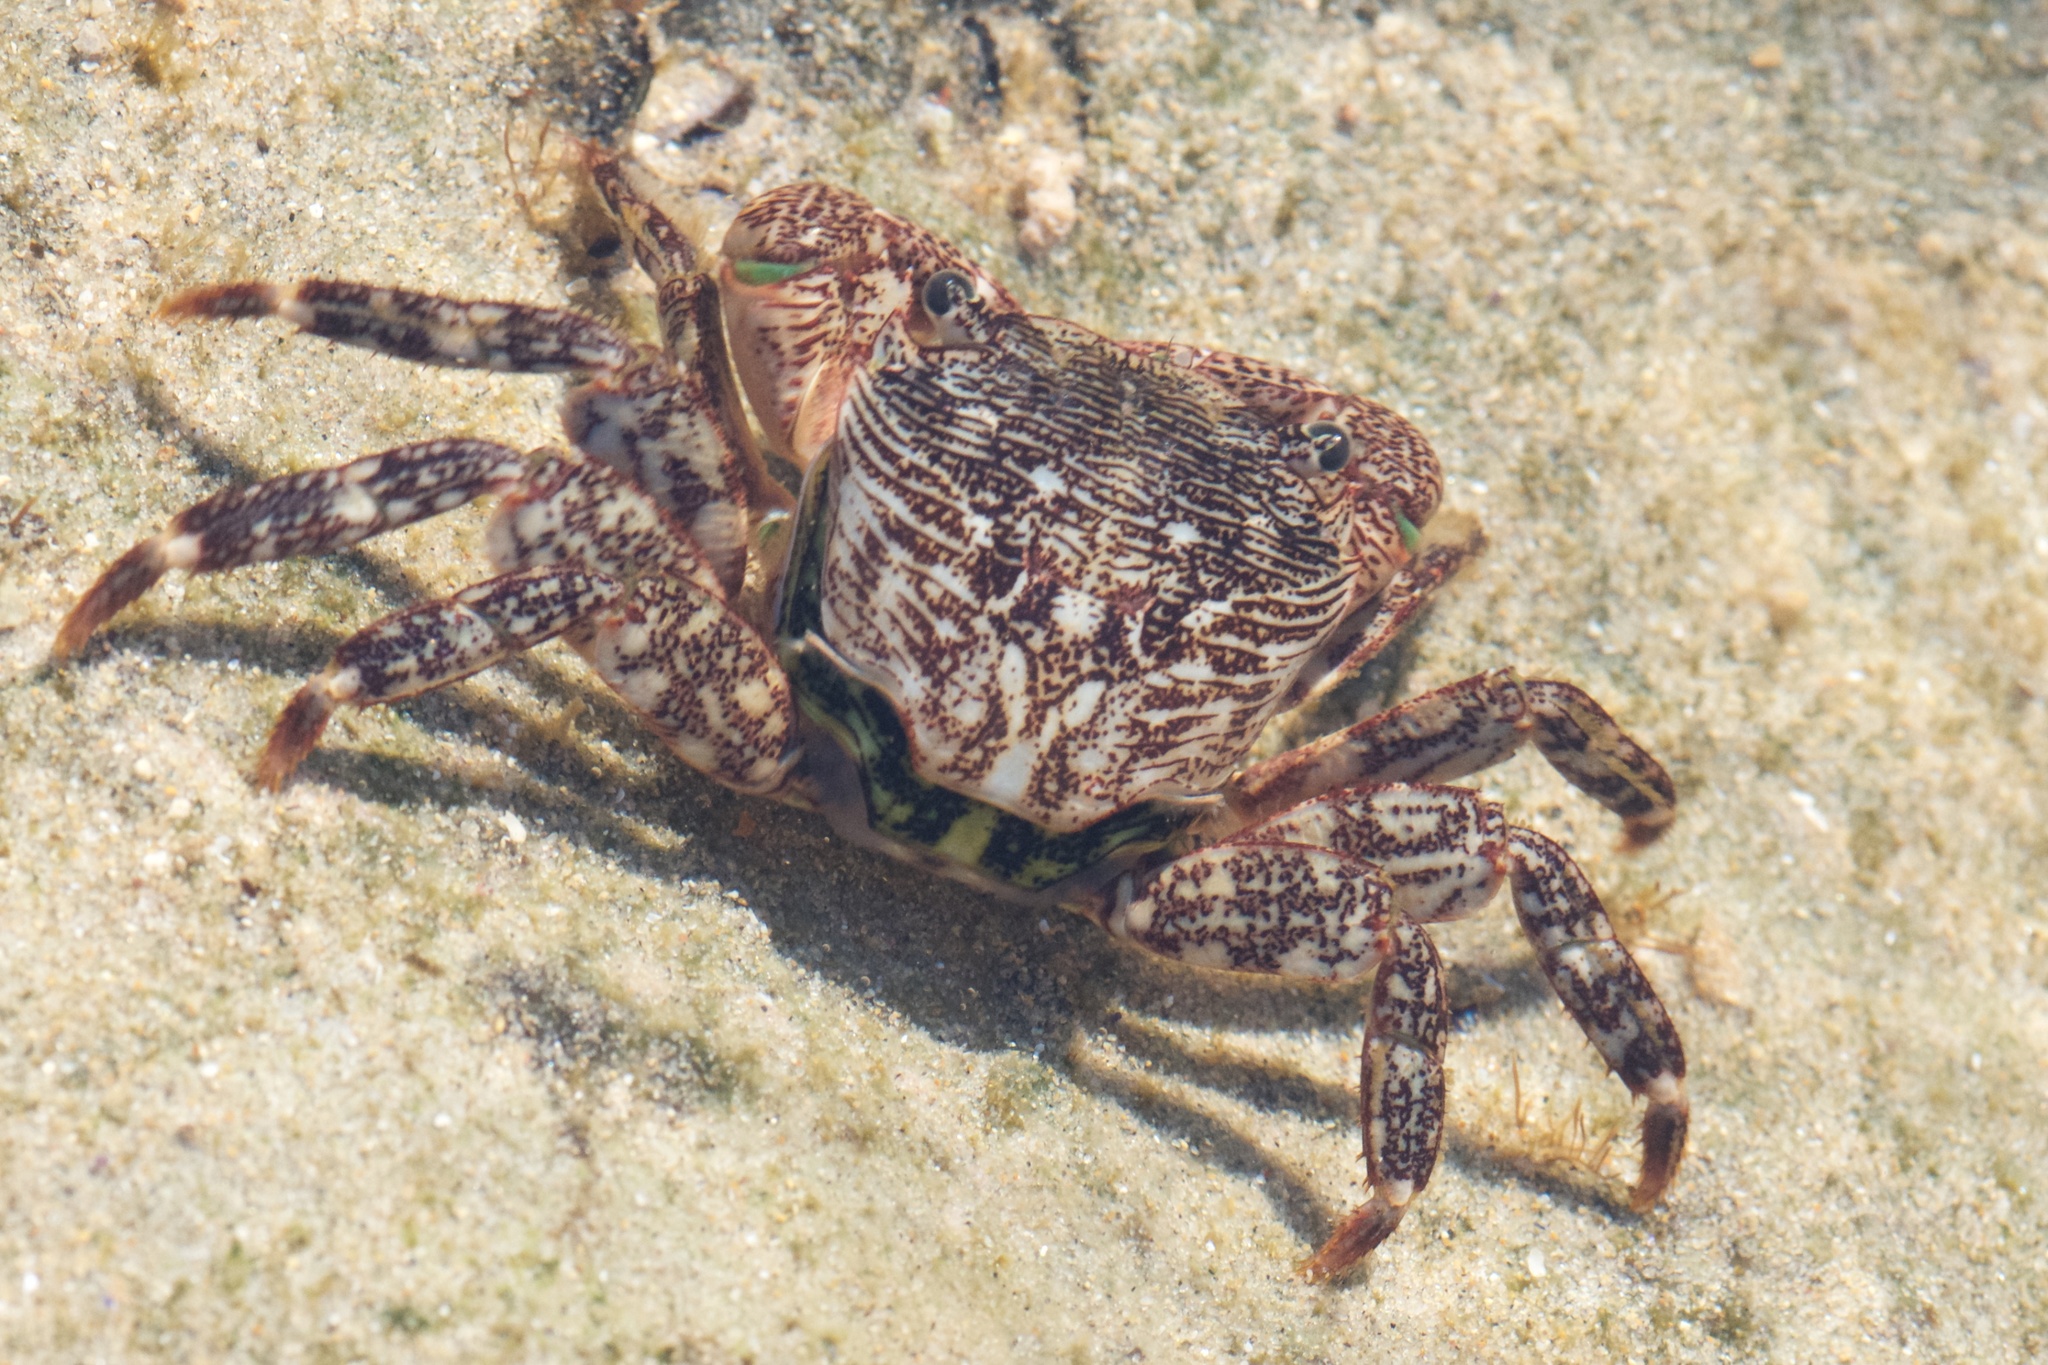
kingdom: Animalia
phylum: Arthropoda
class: Malacostraca
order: Decapoda
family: Grapsidae
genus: Pachygrapsus
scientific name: Pachygrapsus crassipes
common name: Striped shore crab
